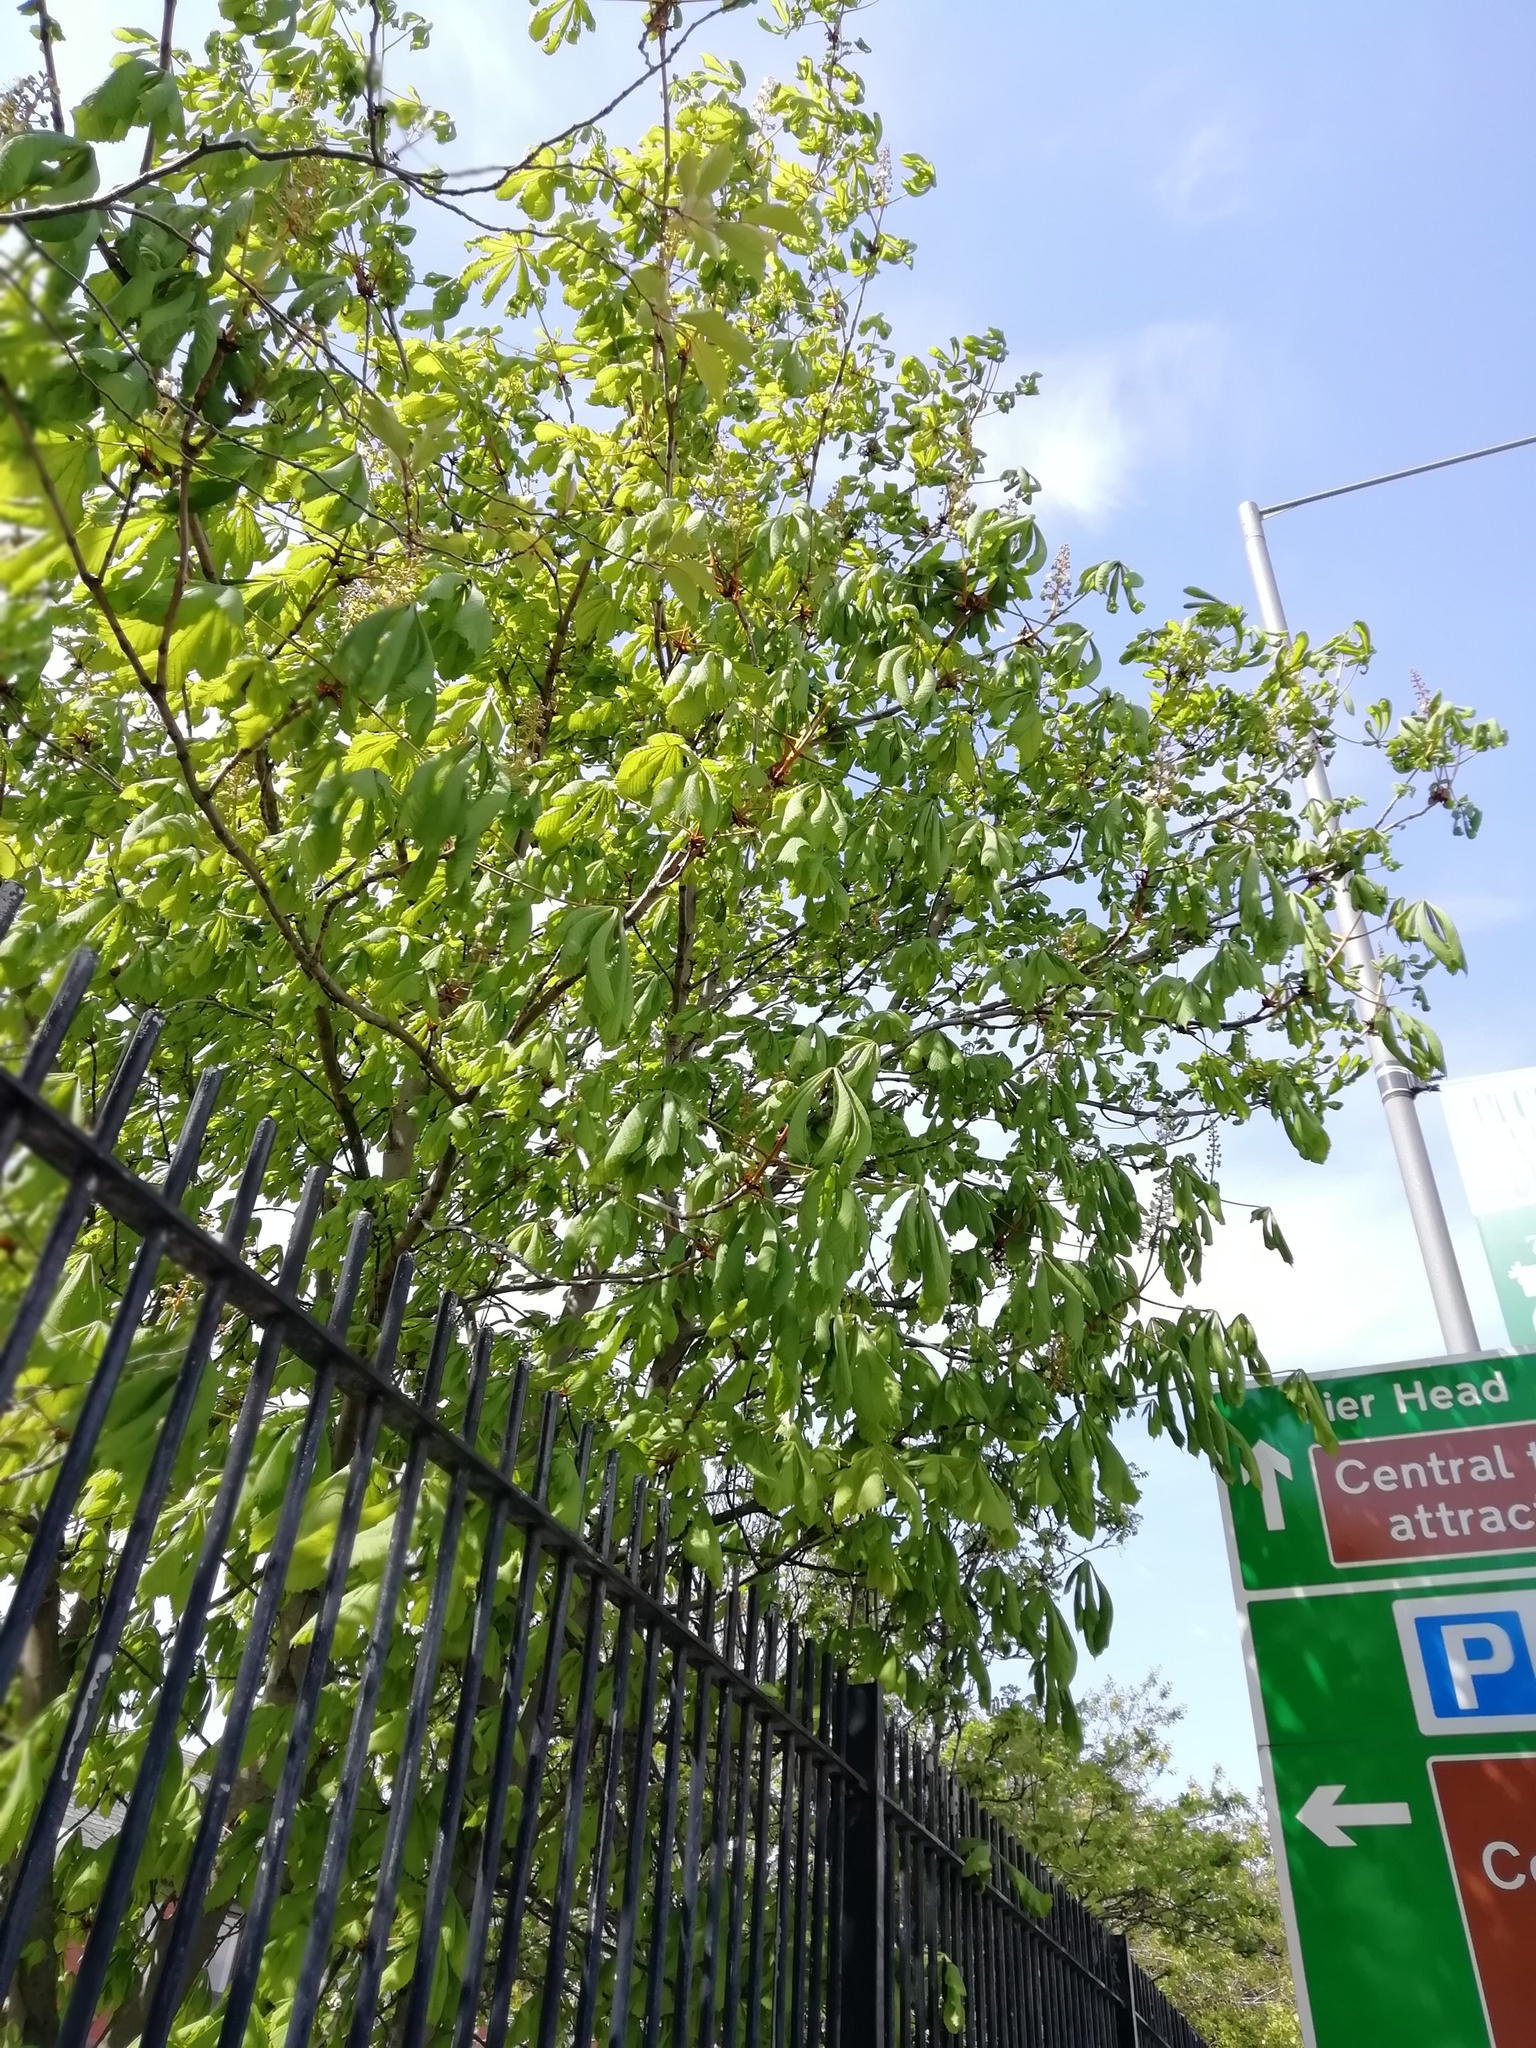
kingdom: Plantae
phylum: Tracheophyta
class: Magnoliopsida
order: Sapindales
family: Sapindaceae
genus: Aesculus
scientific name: Aesculus hippocastanum
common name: Horse-chestnut
